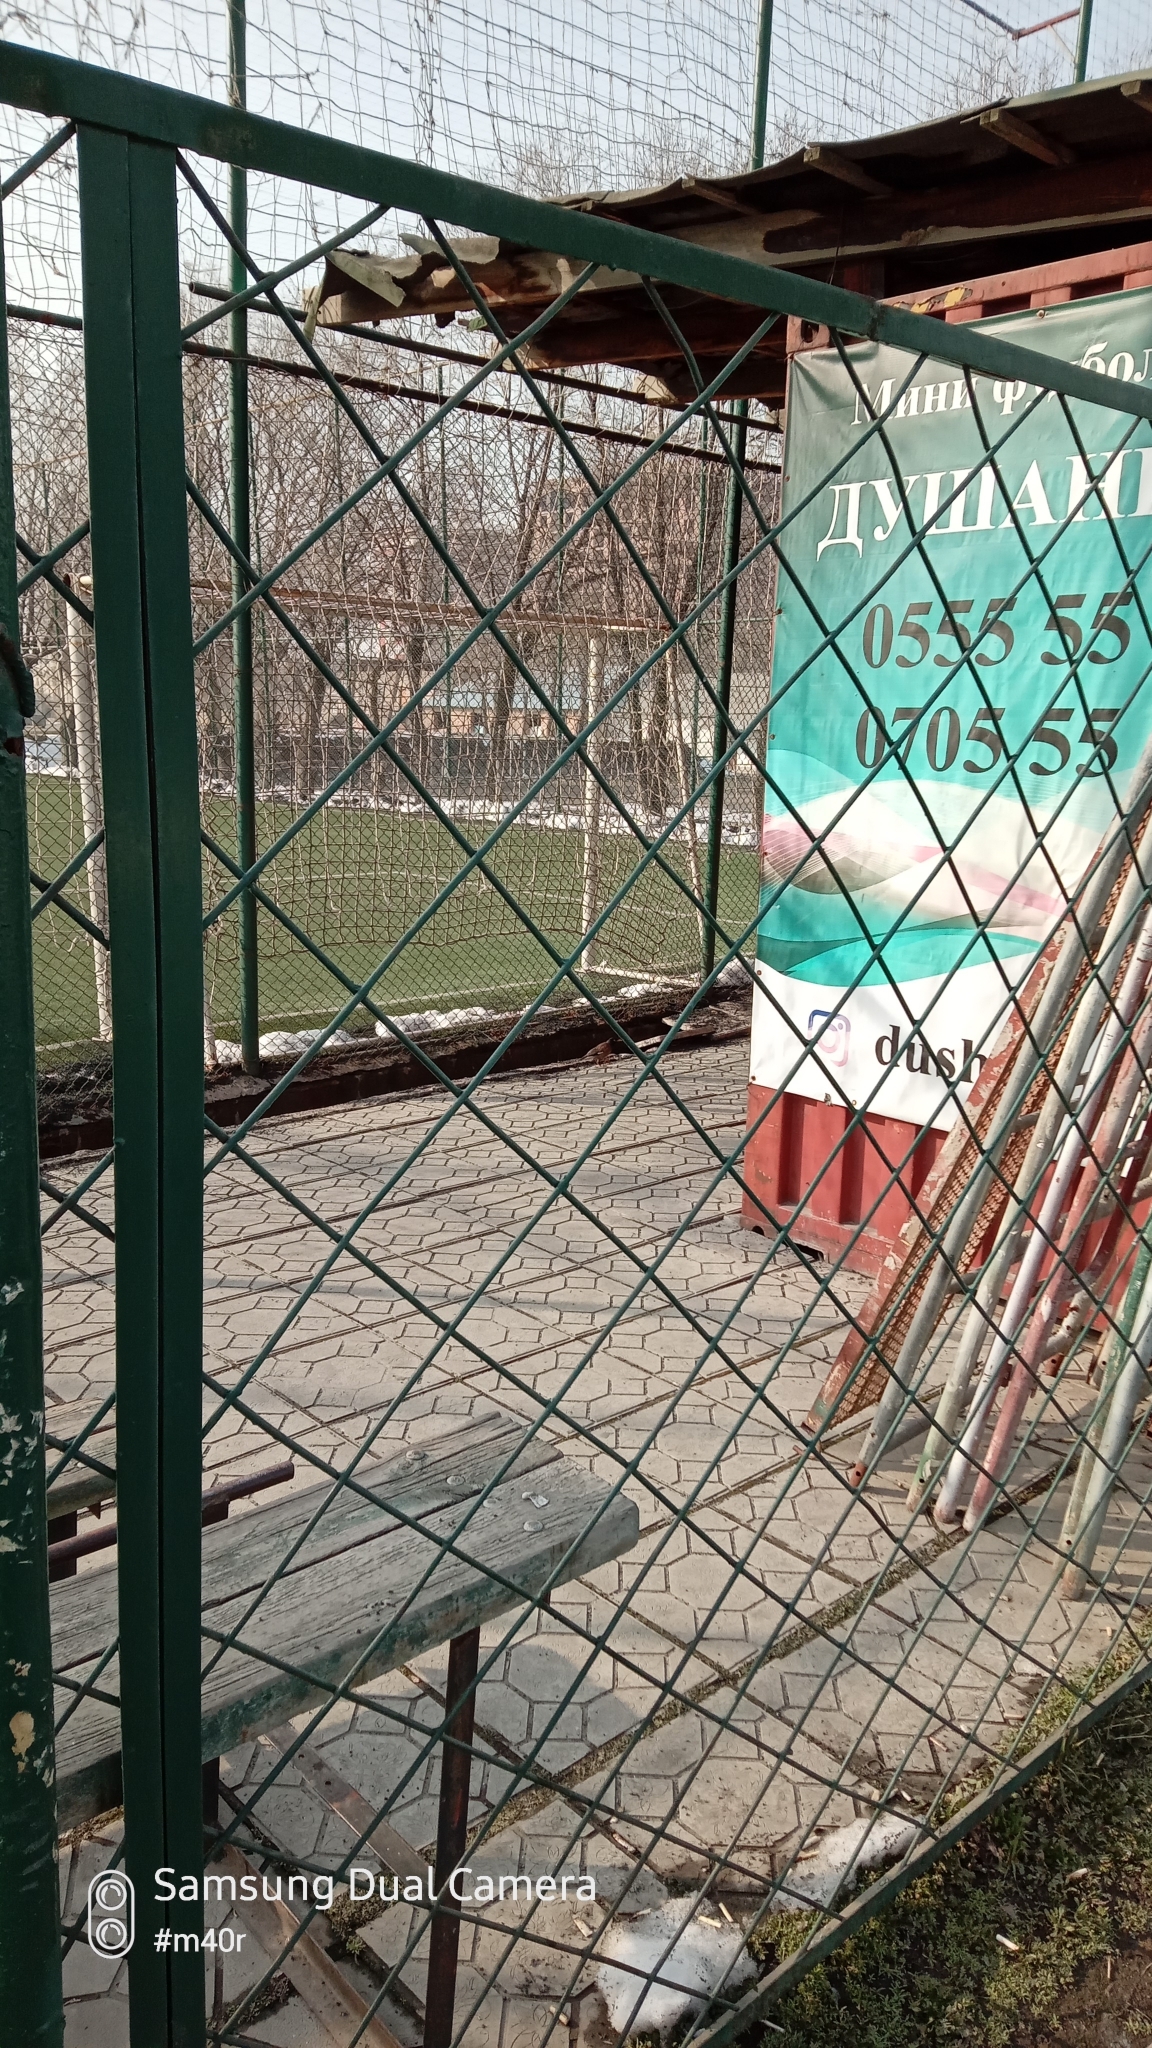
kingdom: Animalia
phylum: Chordata
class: Aves
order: Passeriformes
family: Sturnidae
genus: Acridotheres
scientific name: Acridotheres tristis
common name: Common myna
